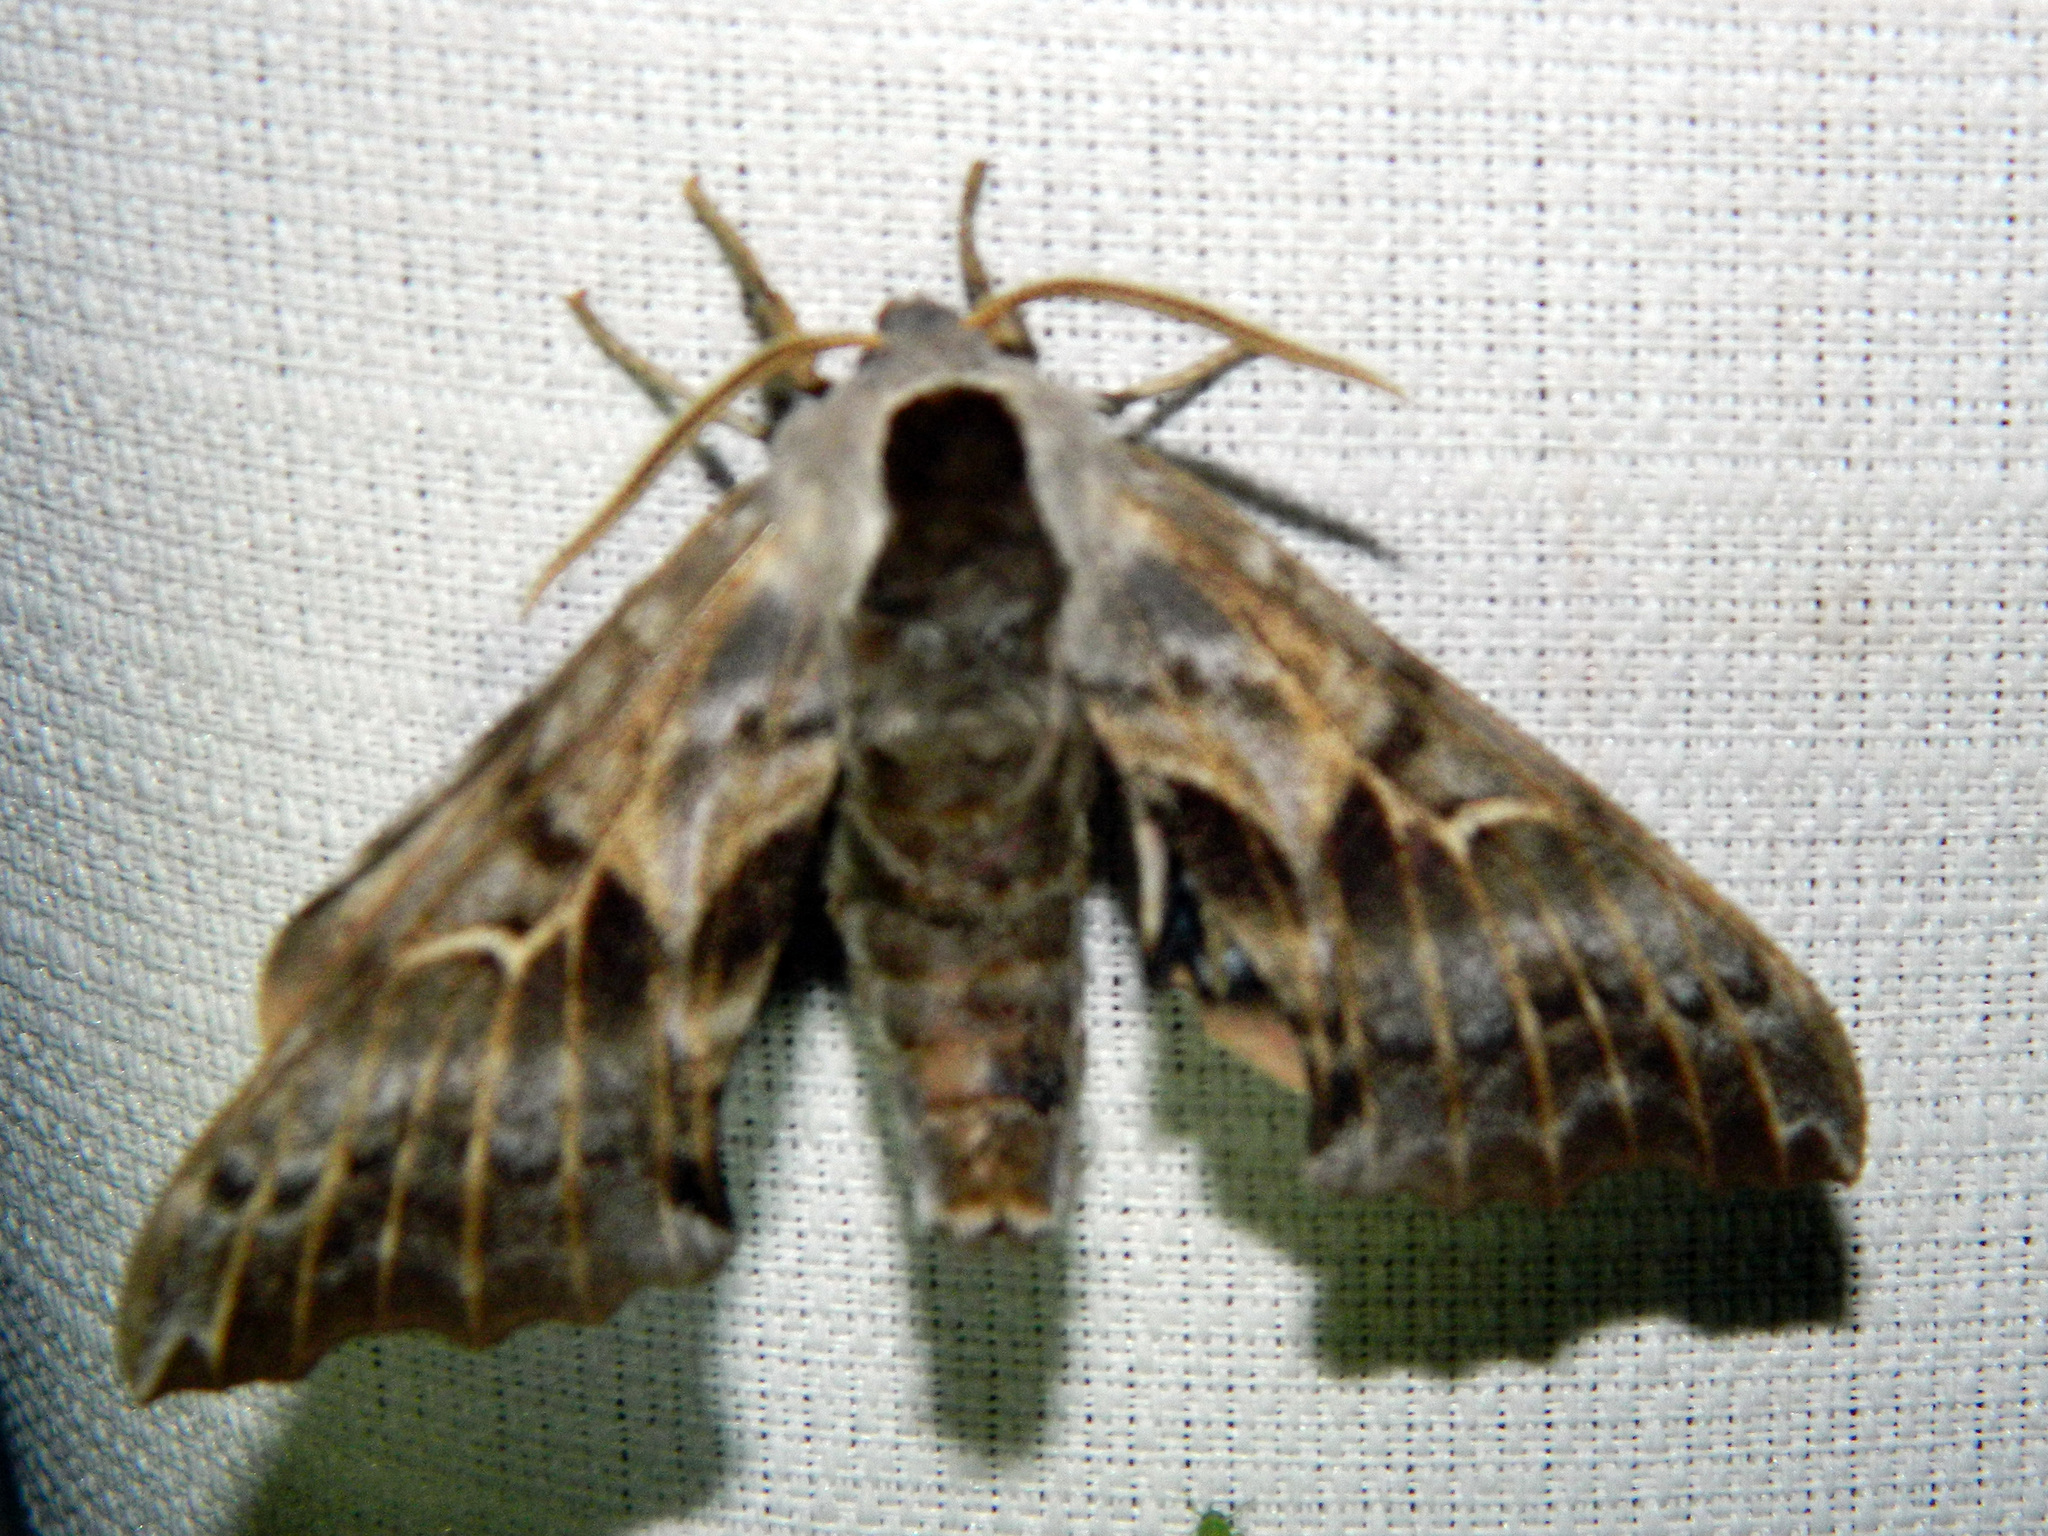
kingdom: Animalia
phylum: Arthropoda
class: Insecta
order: Lepidoptera
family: Sphingidae
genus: Smerinthus
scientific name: Smerinthus cerisyi
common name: Cerisy's sphinx moth
